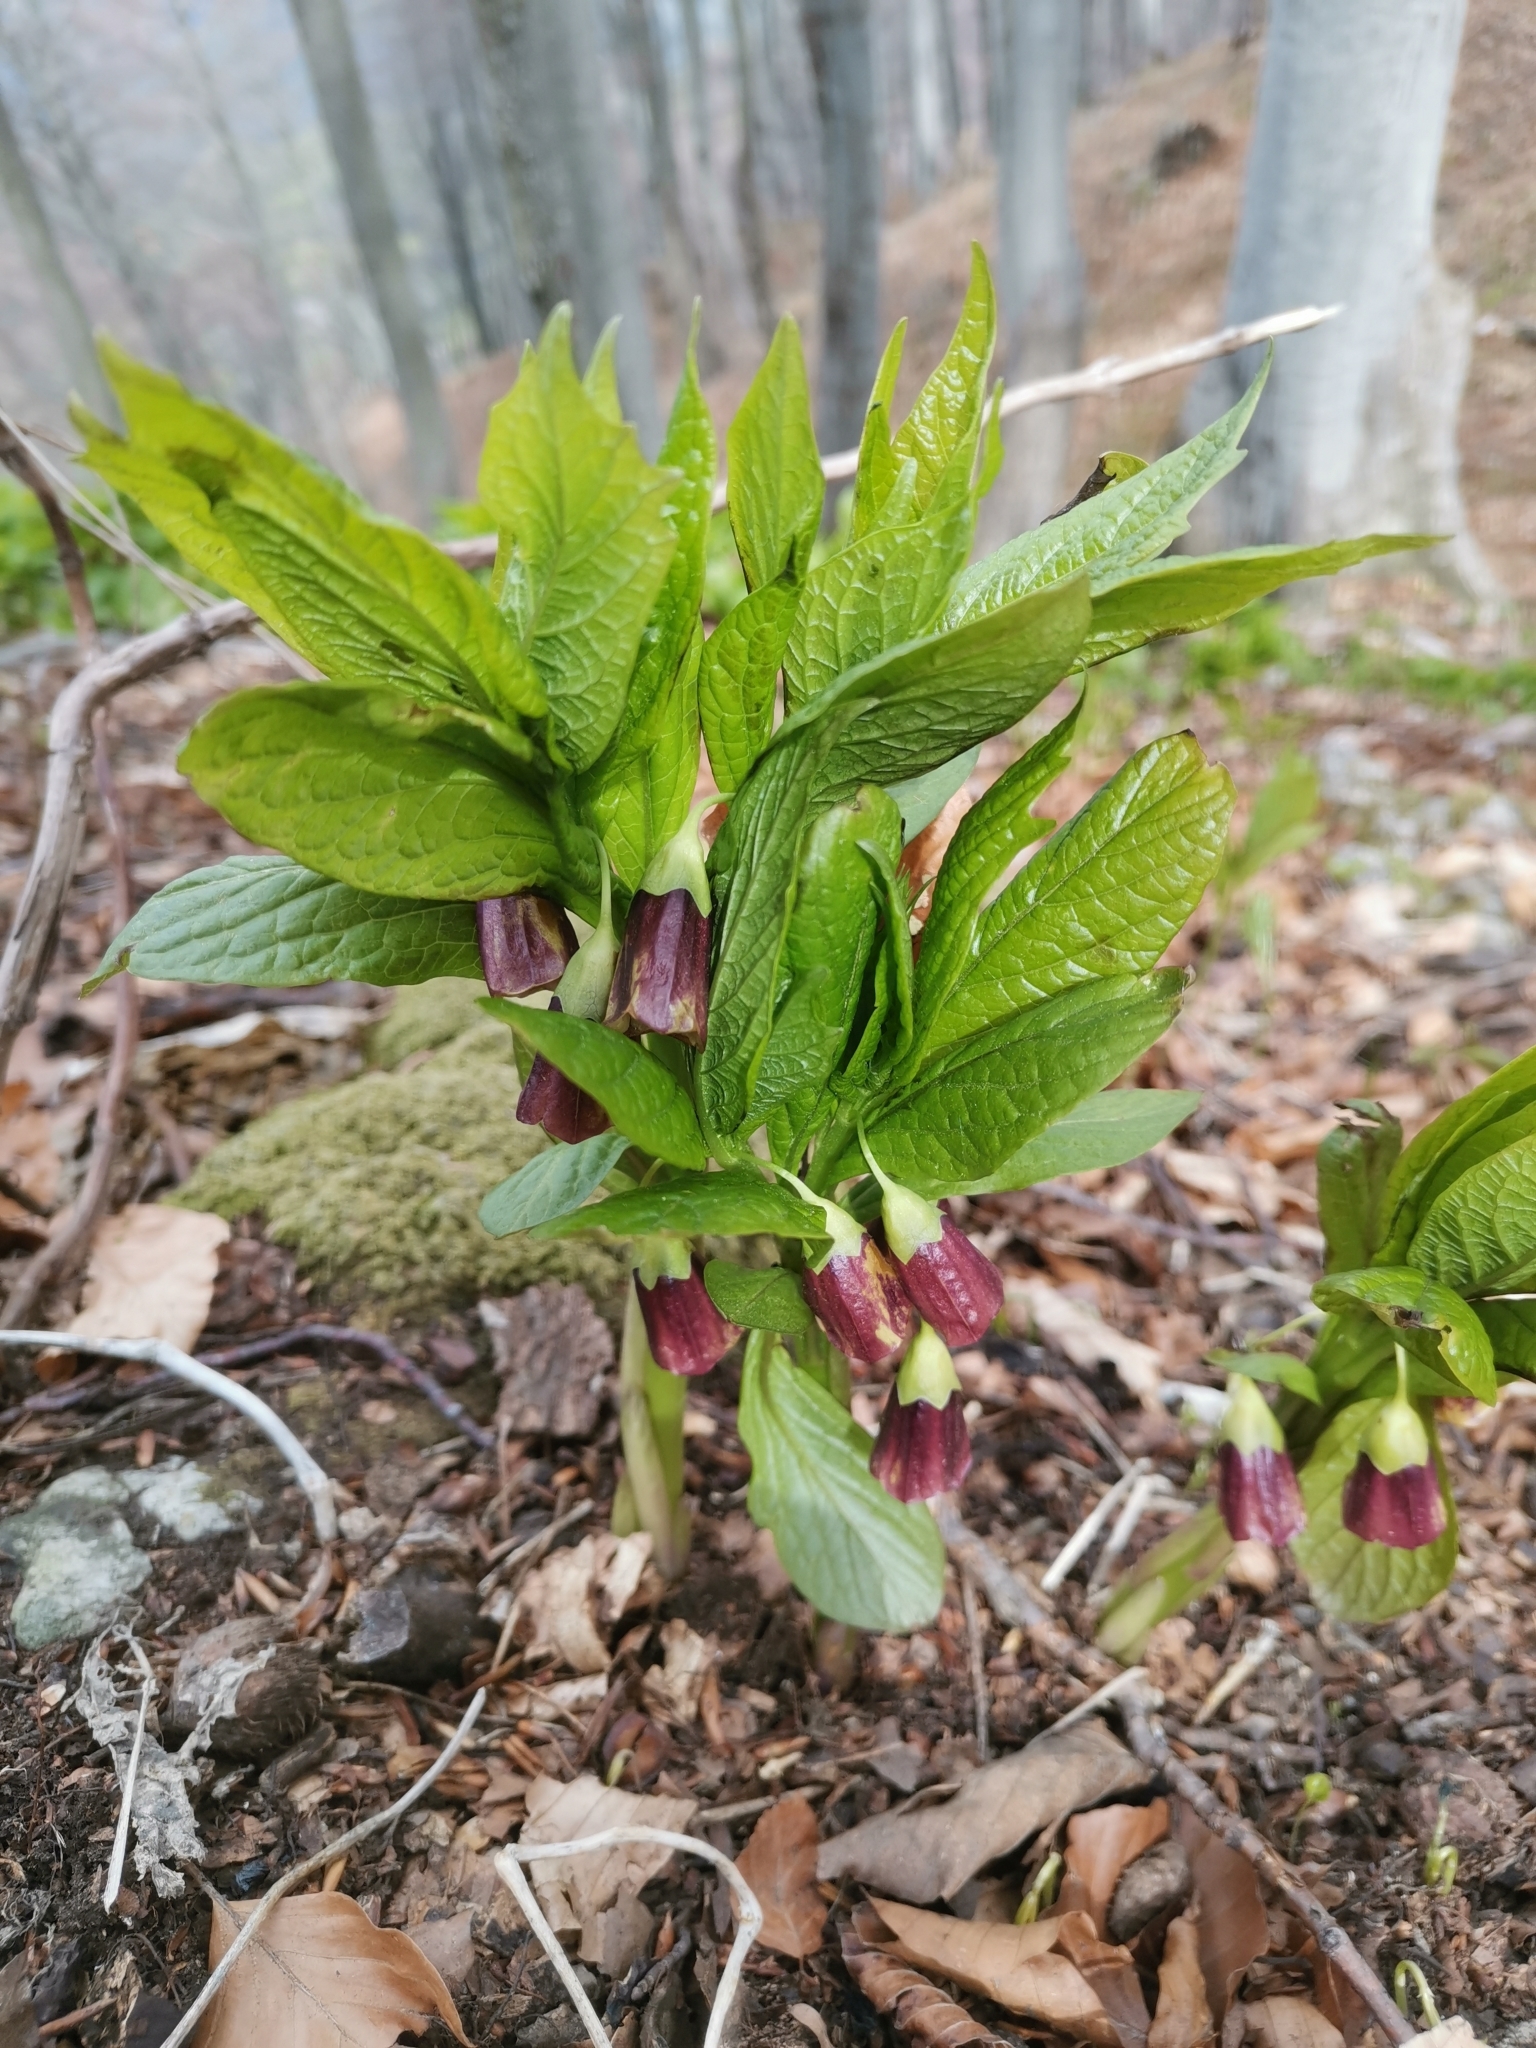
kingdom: Plantae
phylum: Tracheophyta
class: Magnoliopsida
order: Solanales
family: Solanaceae
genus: Scopolia
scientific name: Scopolia carniolica
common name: Scopolia
